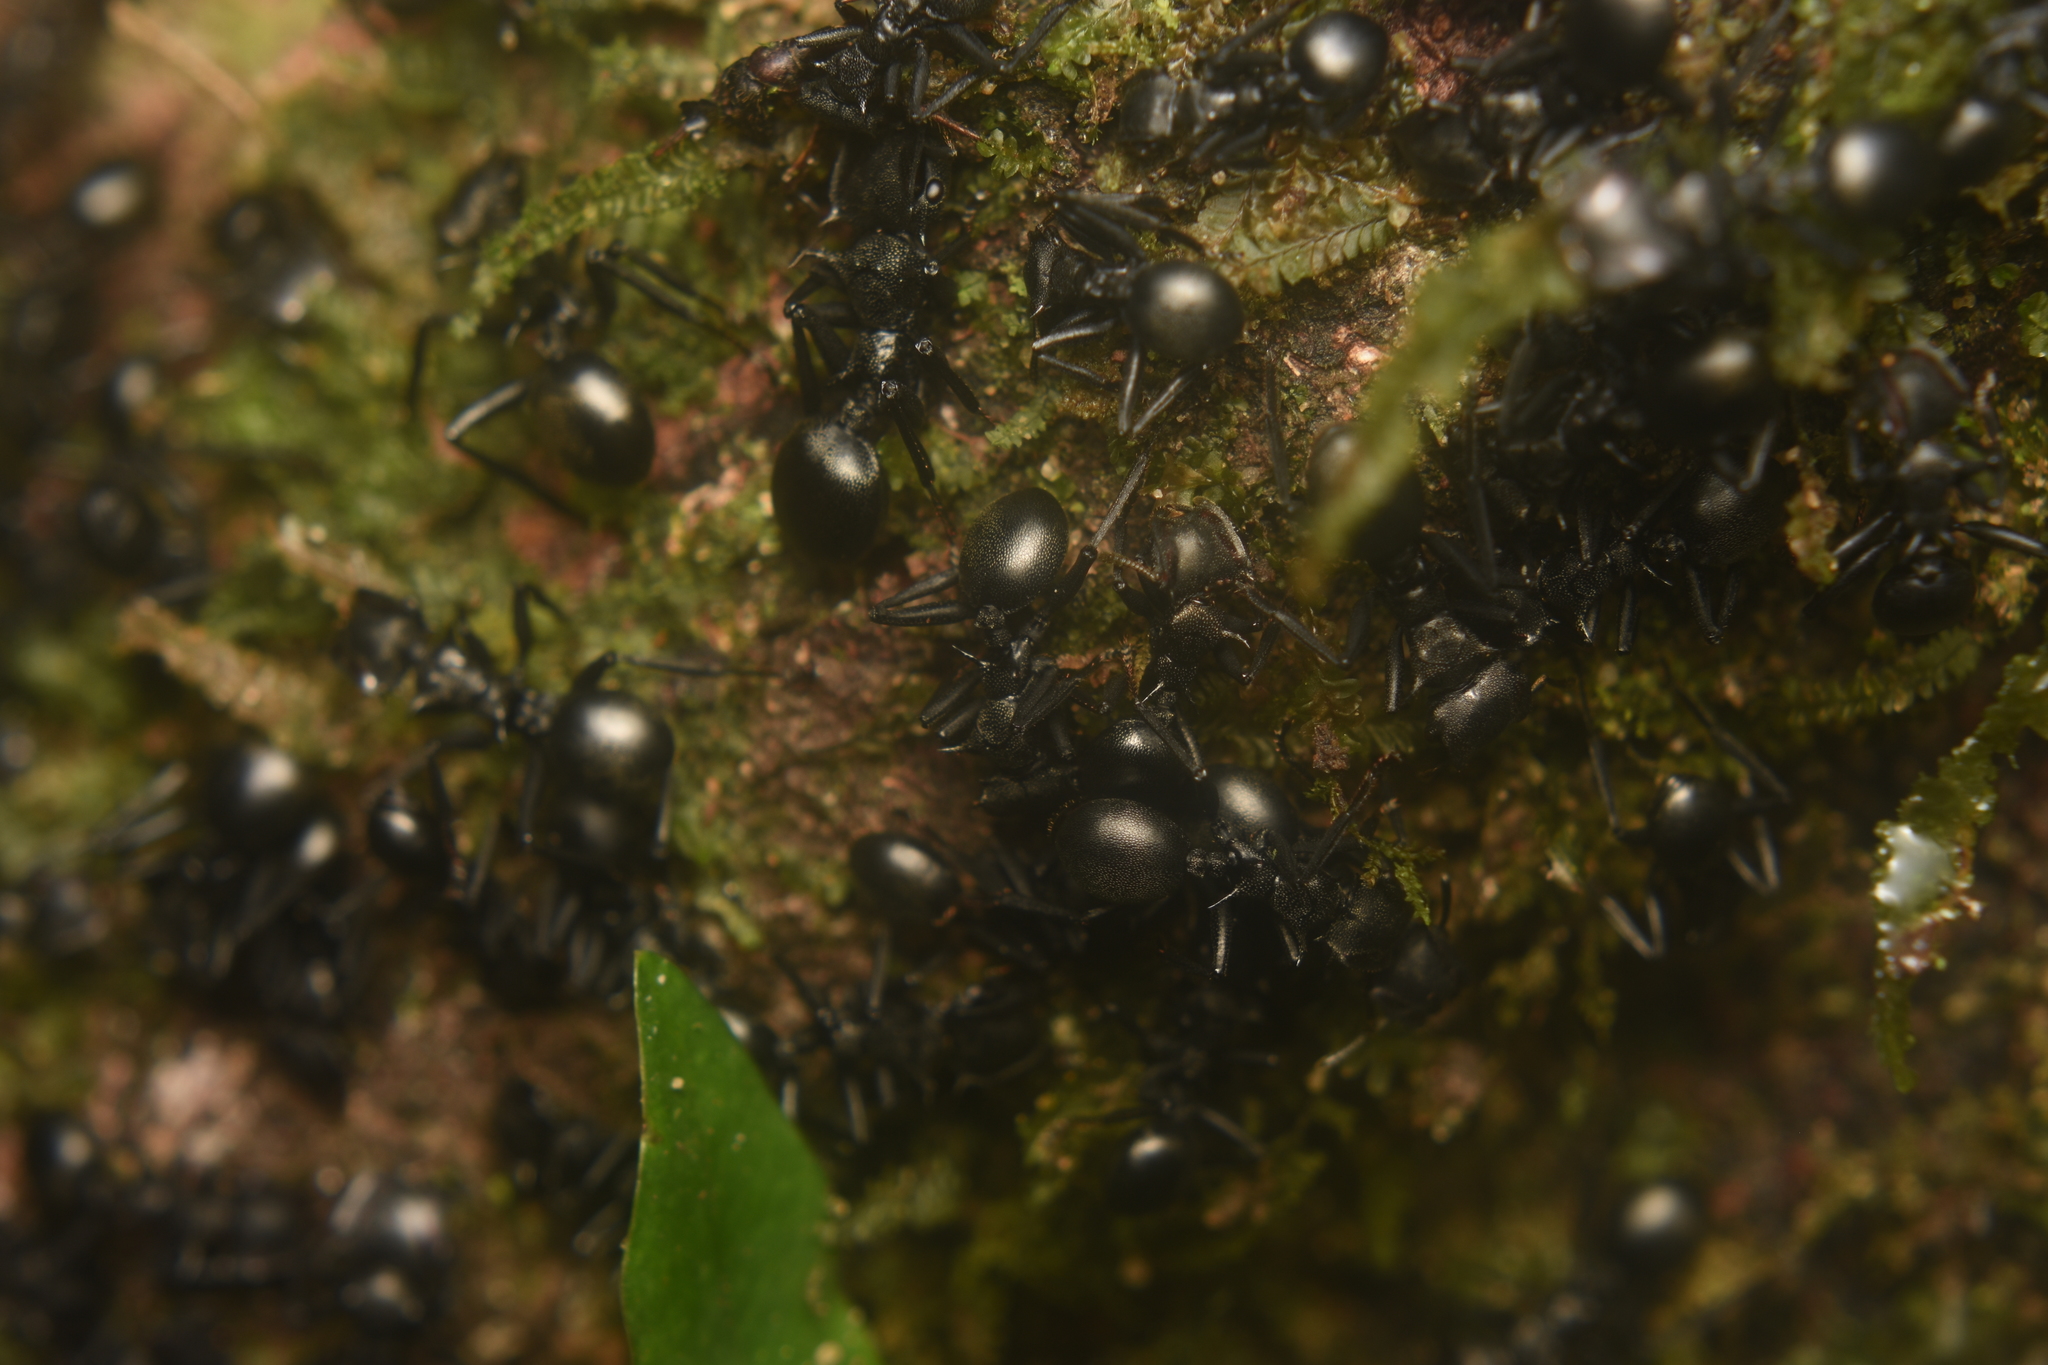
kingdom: Animalia
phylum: Arthropoda
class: Insecta
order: Hymenoptera
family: Formicidae
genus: Cephalotes
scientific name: Cephalotes atratus
